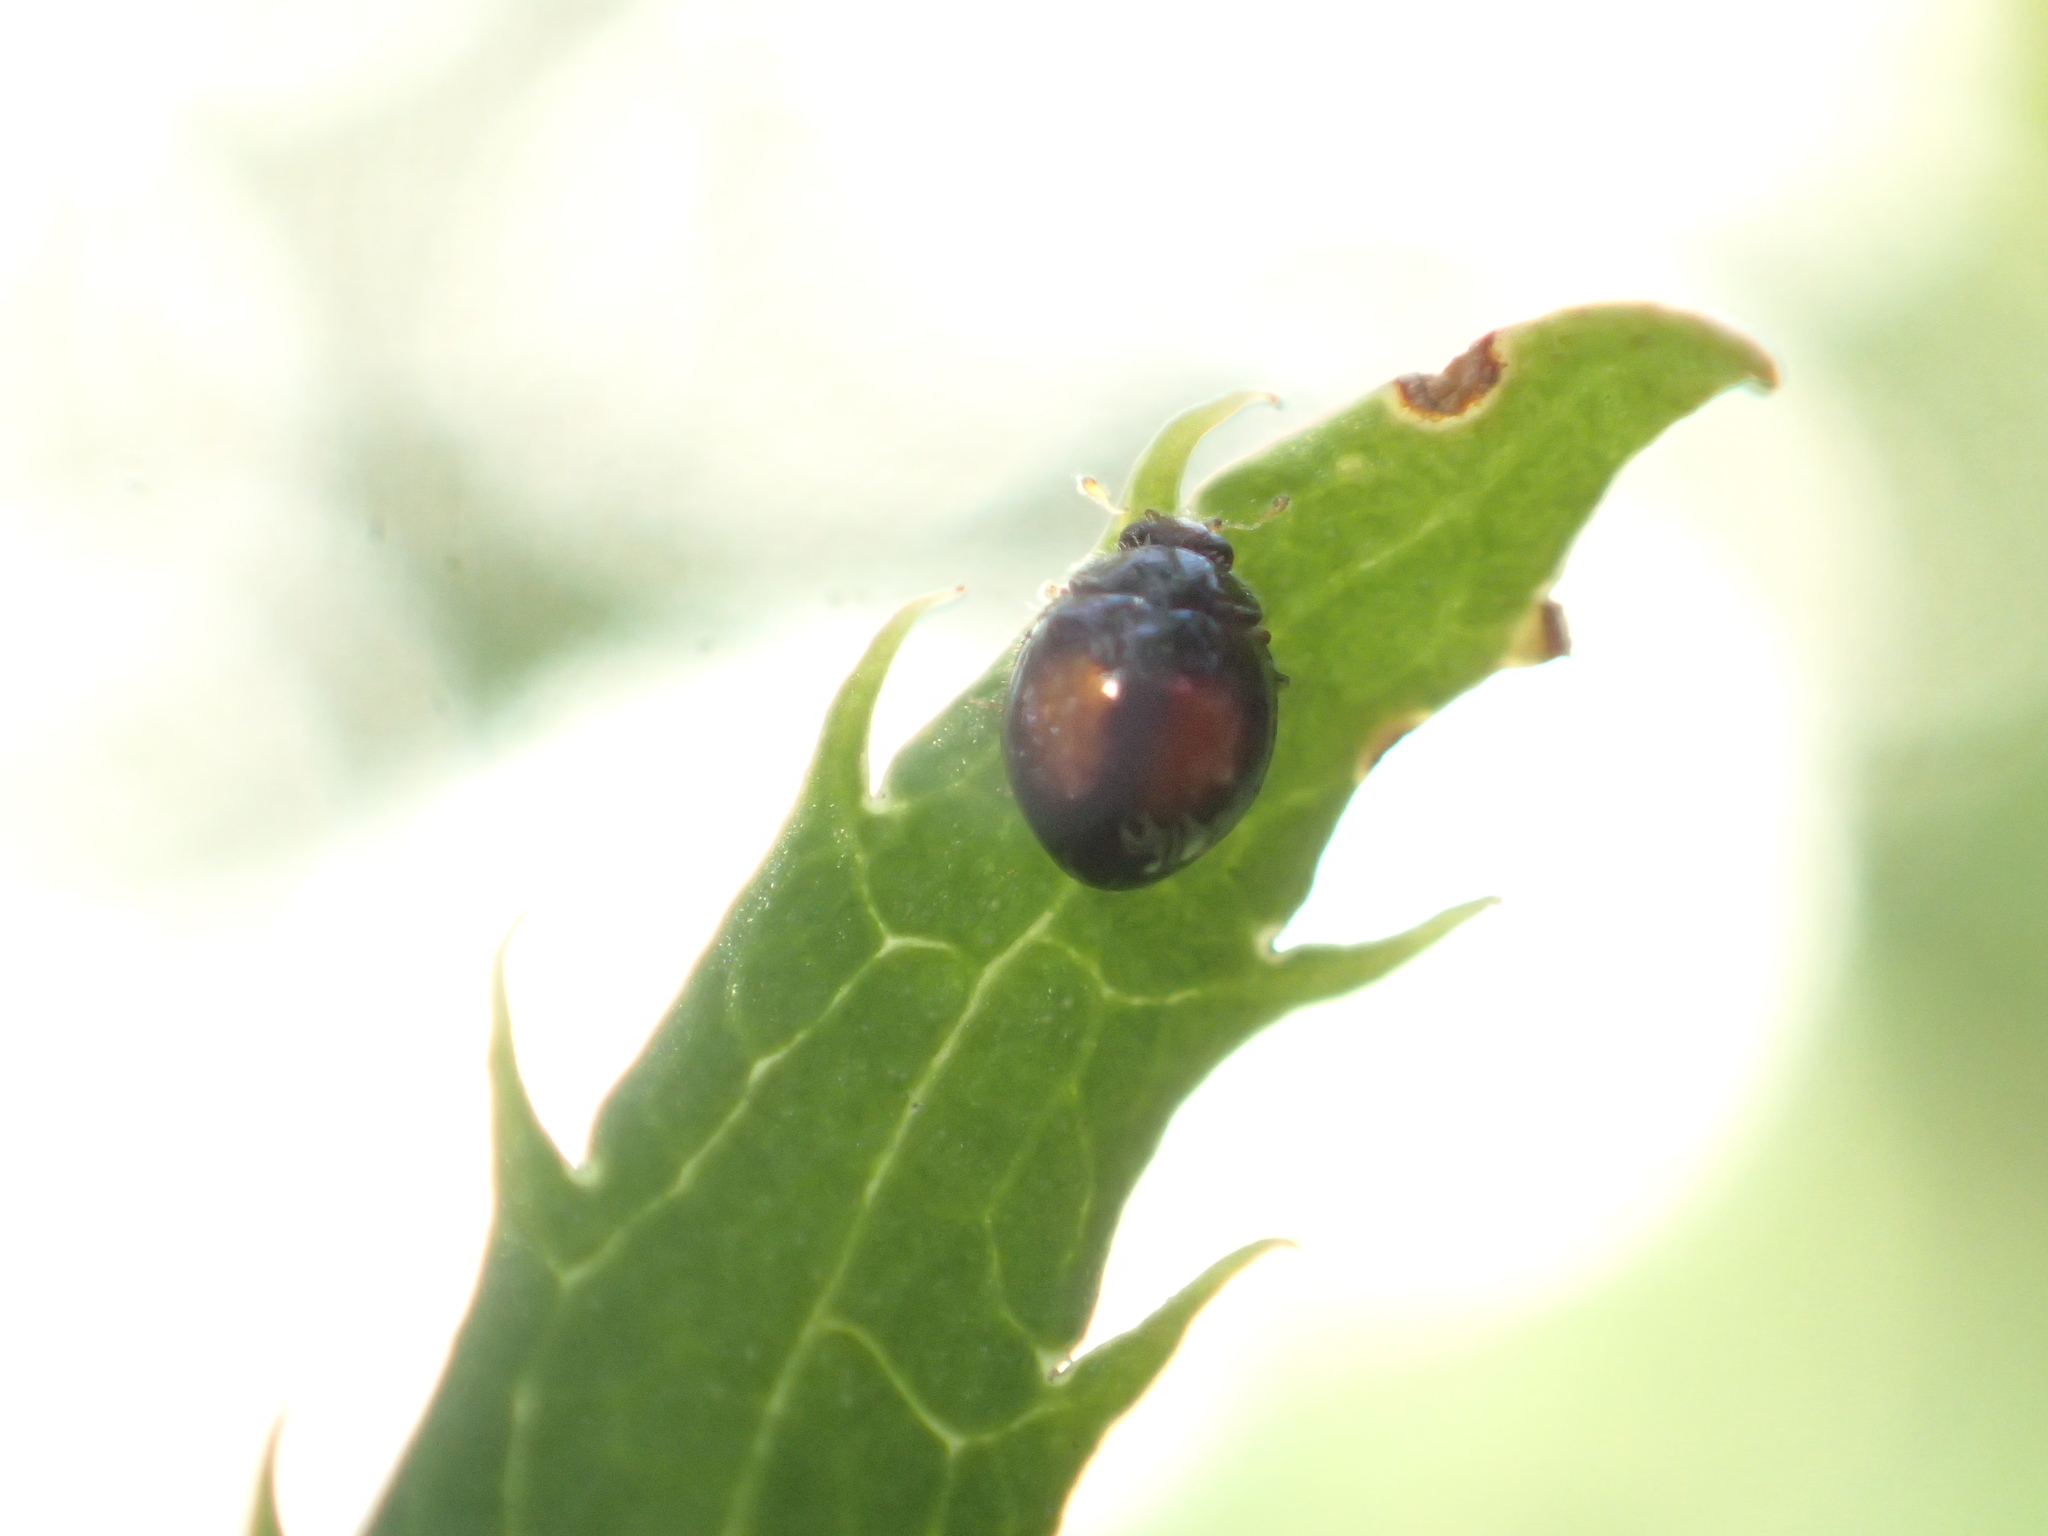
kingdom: Animalia
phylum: Arthropoda
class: Insecta
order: Coleoptera
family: Coccinellidae
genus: Serangium
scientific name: Serangium maculigerum
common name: Lady beetle
